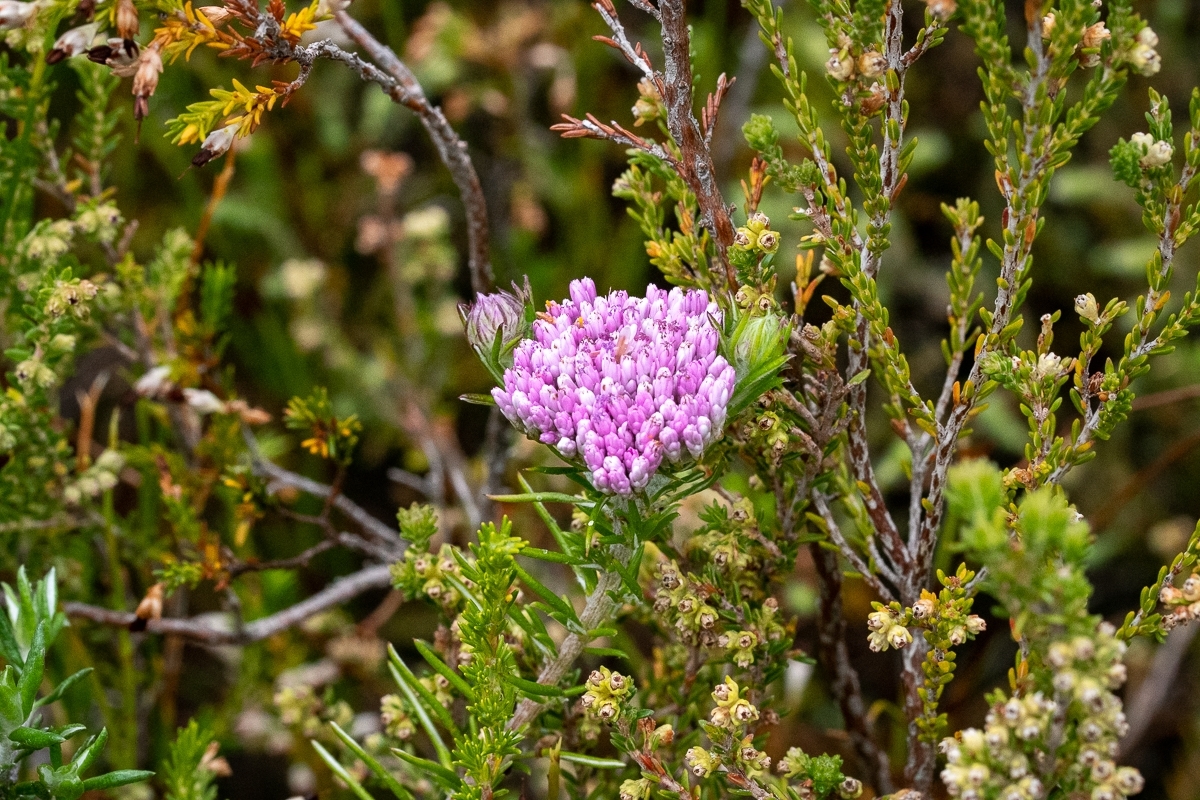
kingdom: Plantae
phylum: Tracheophyta
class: Magnoliopsida
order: Asterales
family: Asteraceae
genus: Metalasia
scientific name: Metalasia erubescens
